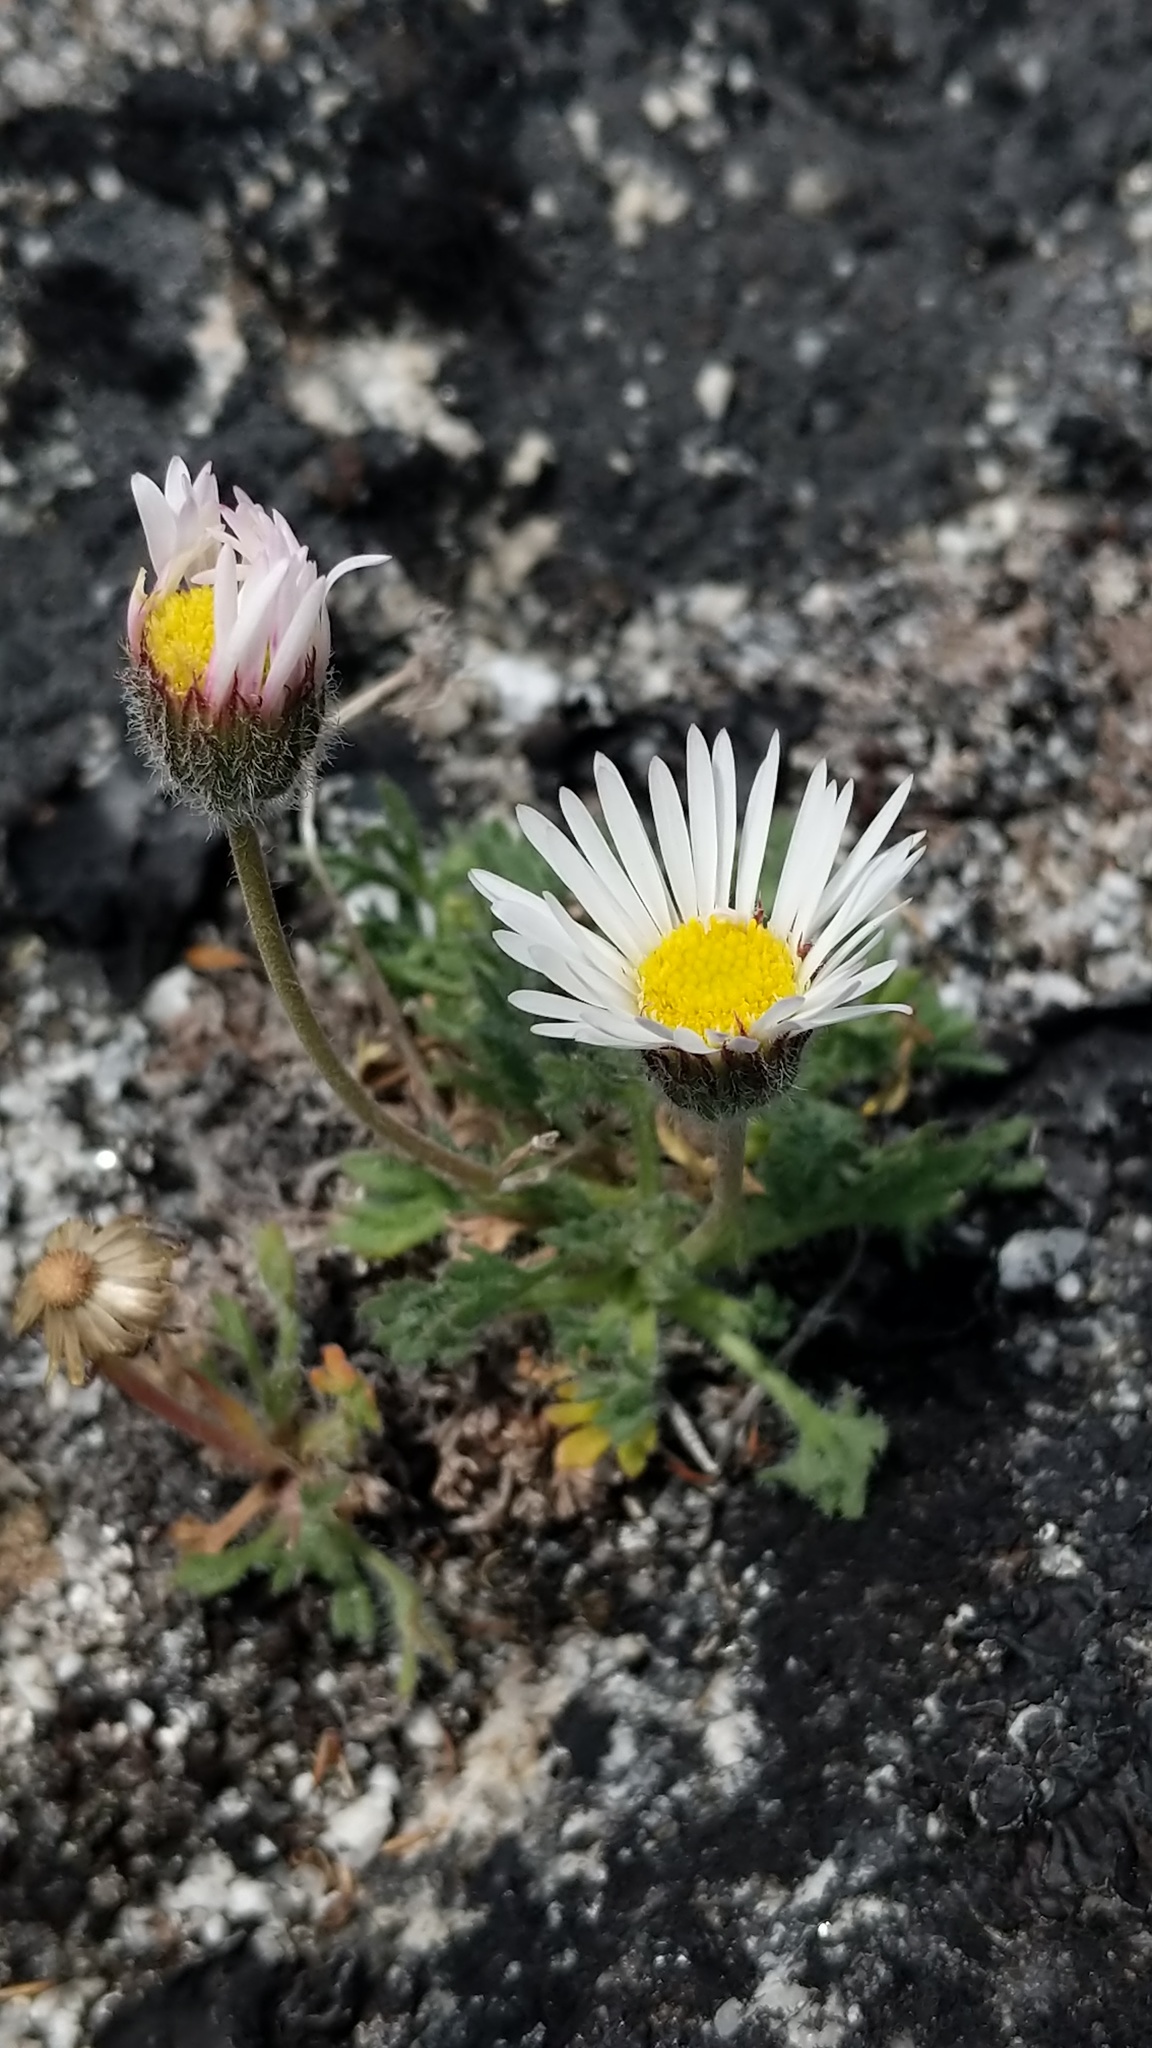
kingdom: Plantae
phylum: Tracheophyta
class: Magnoliopsida
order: Asterales
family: Asteraceae
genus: Erigeron
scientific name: Erigeron compositus
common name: Dwarf mountain fleabane
